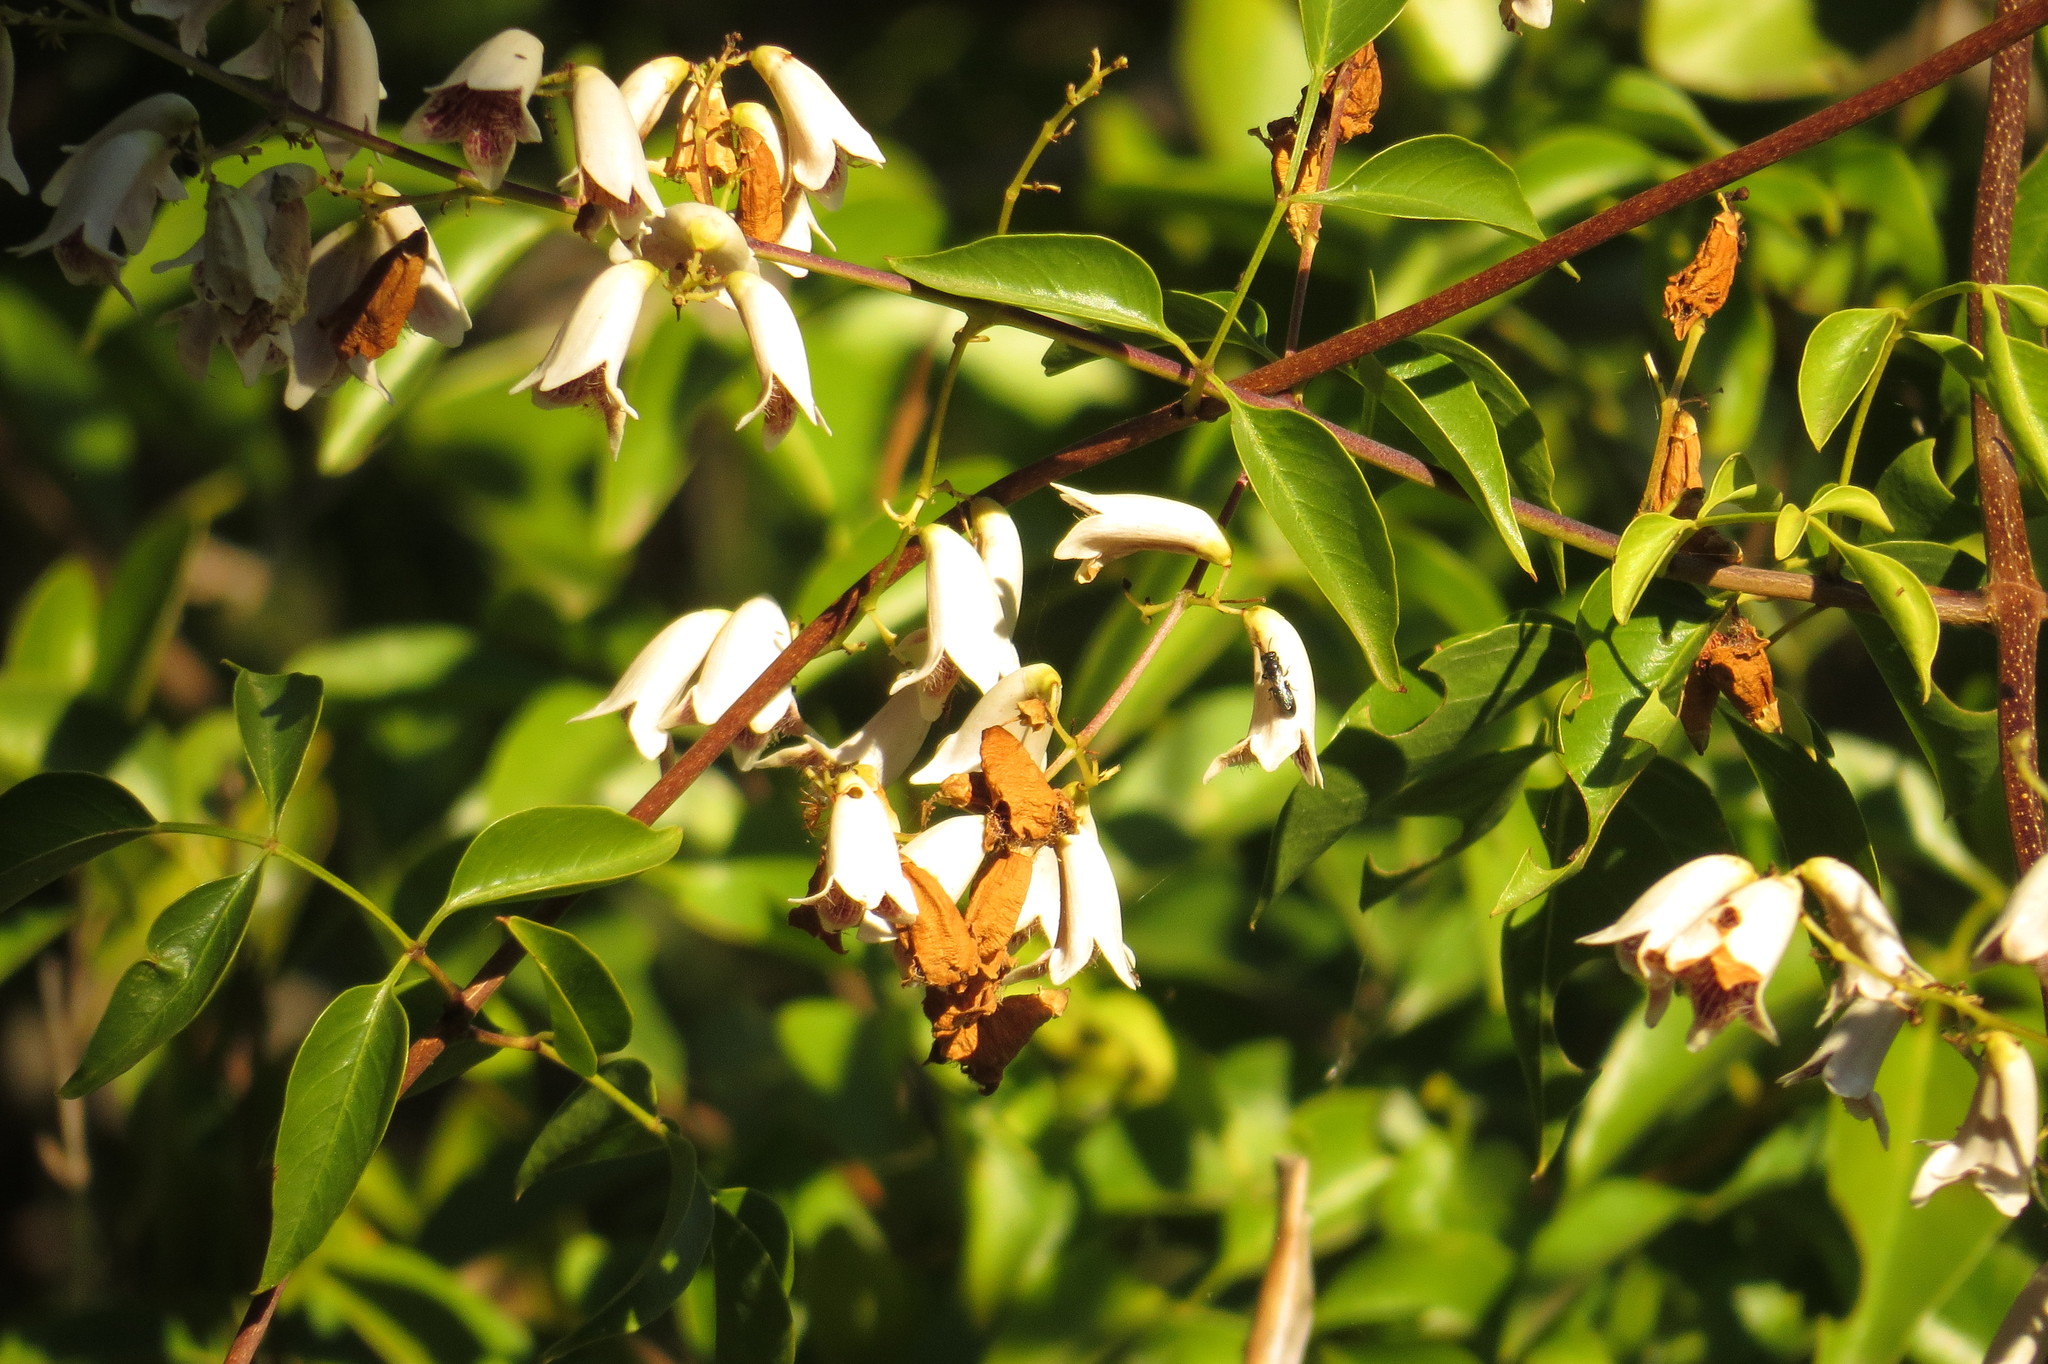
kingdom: Plantae
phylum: Tracheophyta
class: Magnoliopsida
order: Lamiales
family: Bignoniaceae
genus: Pandorea
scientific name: Pandorea pandorana
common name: Wonga-wonga-vine
